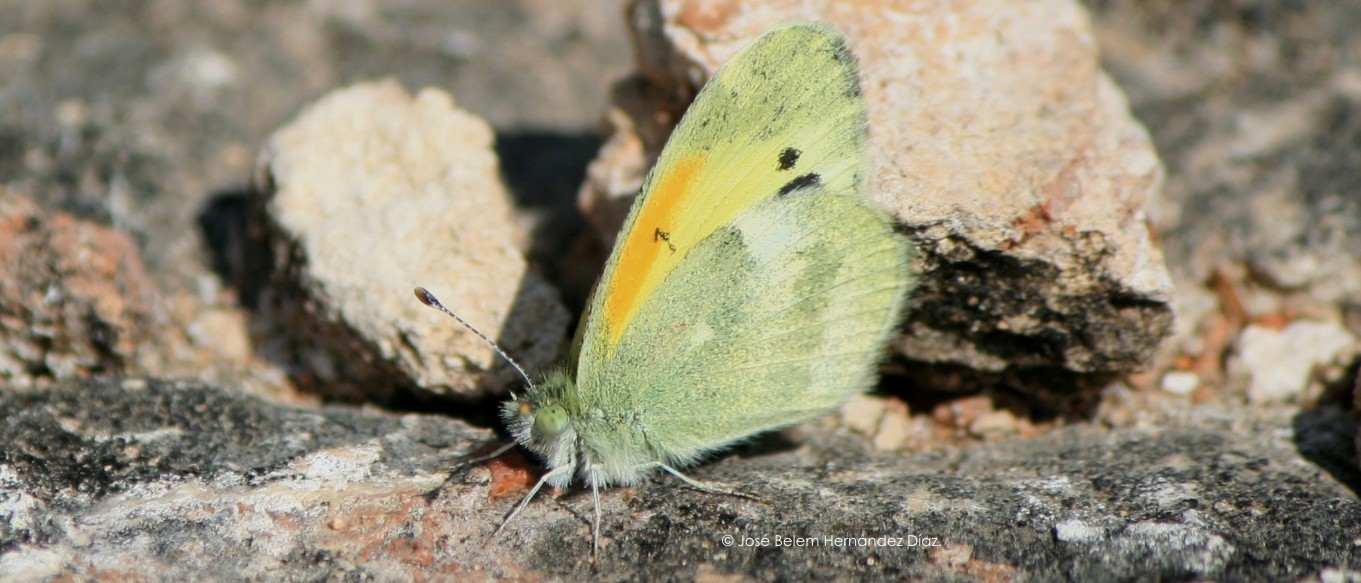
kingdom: Animalia
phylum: Arthropoda
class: Insecta
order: Lepidoptera
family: Pieridae
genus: Nathalis
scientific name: Nathalis iole
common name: Dainty sulphur
